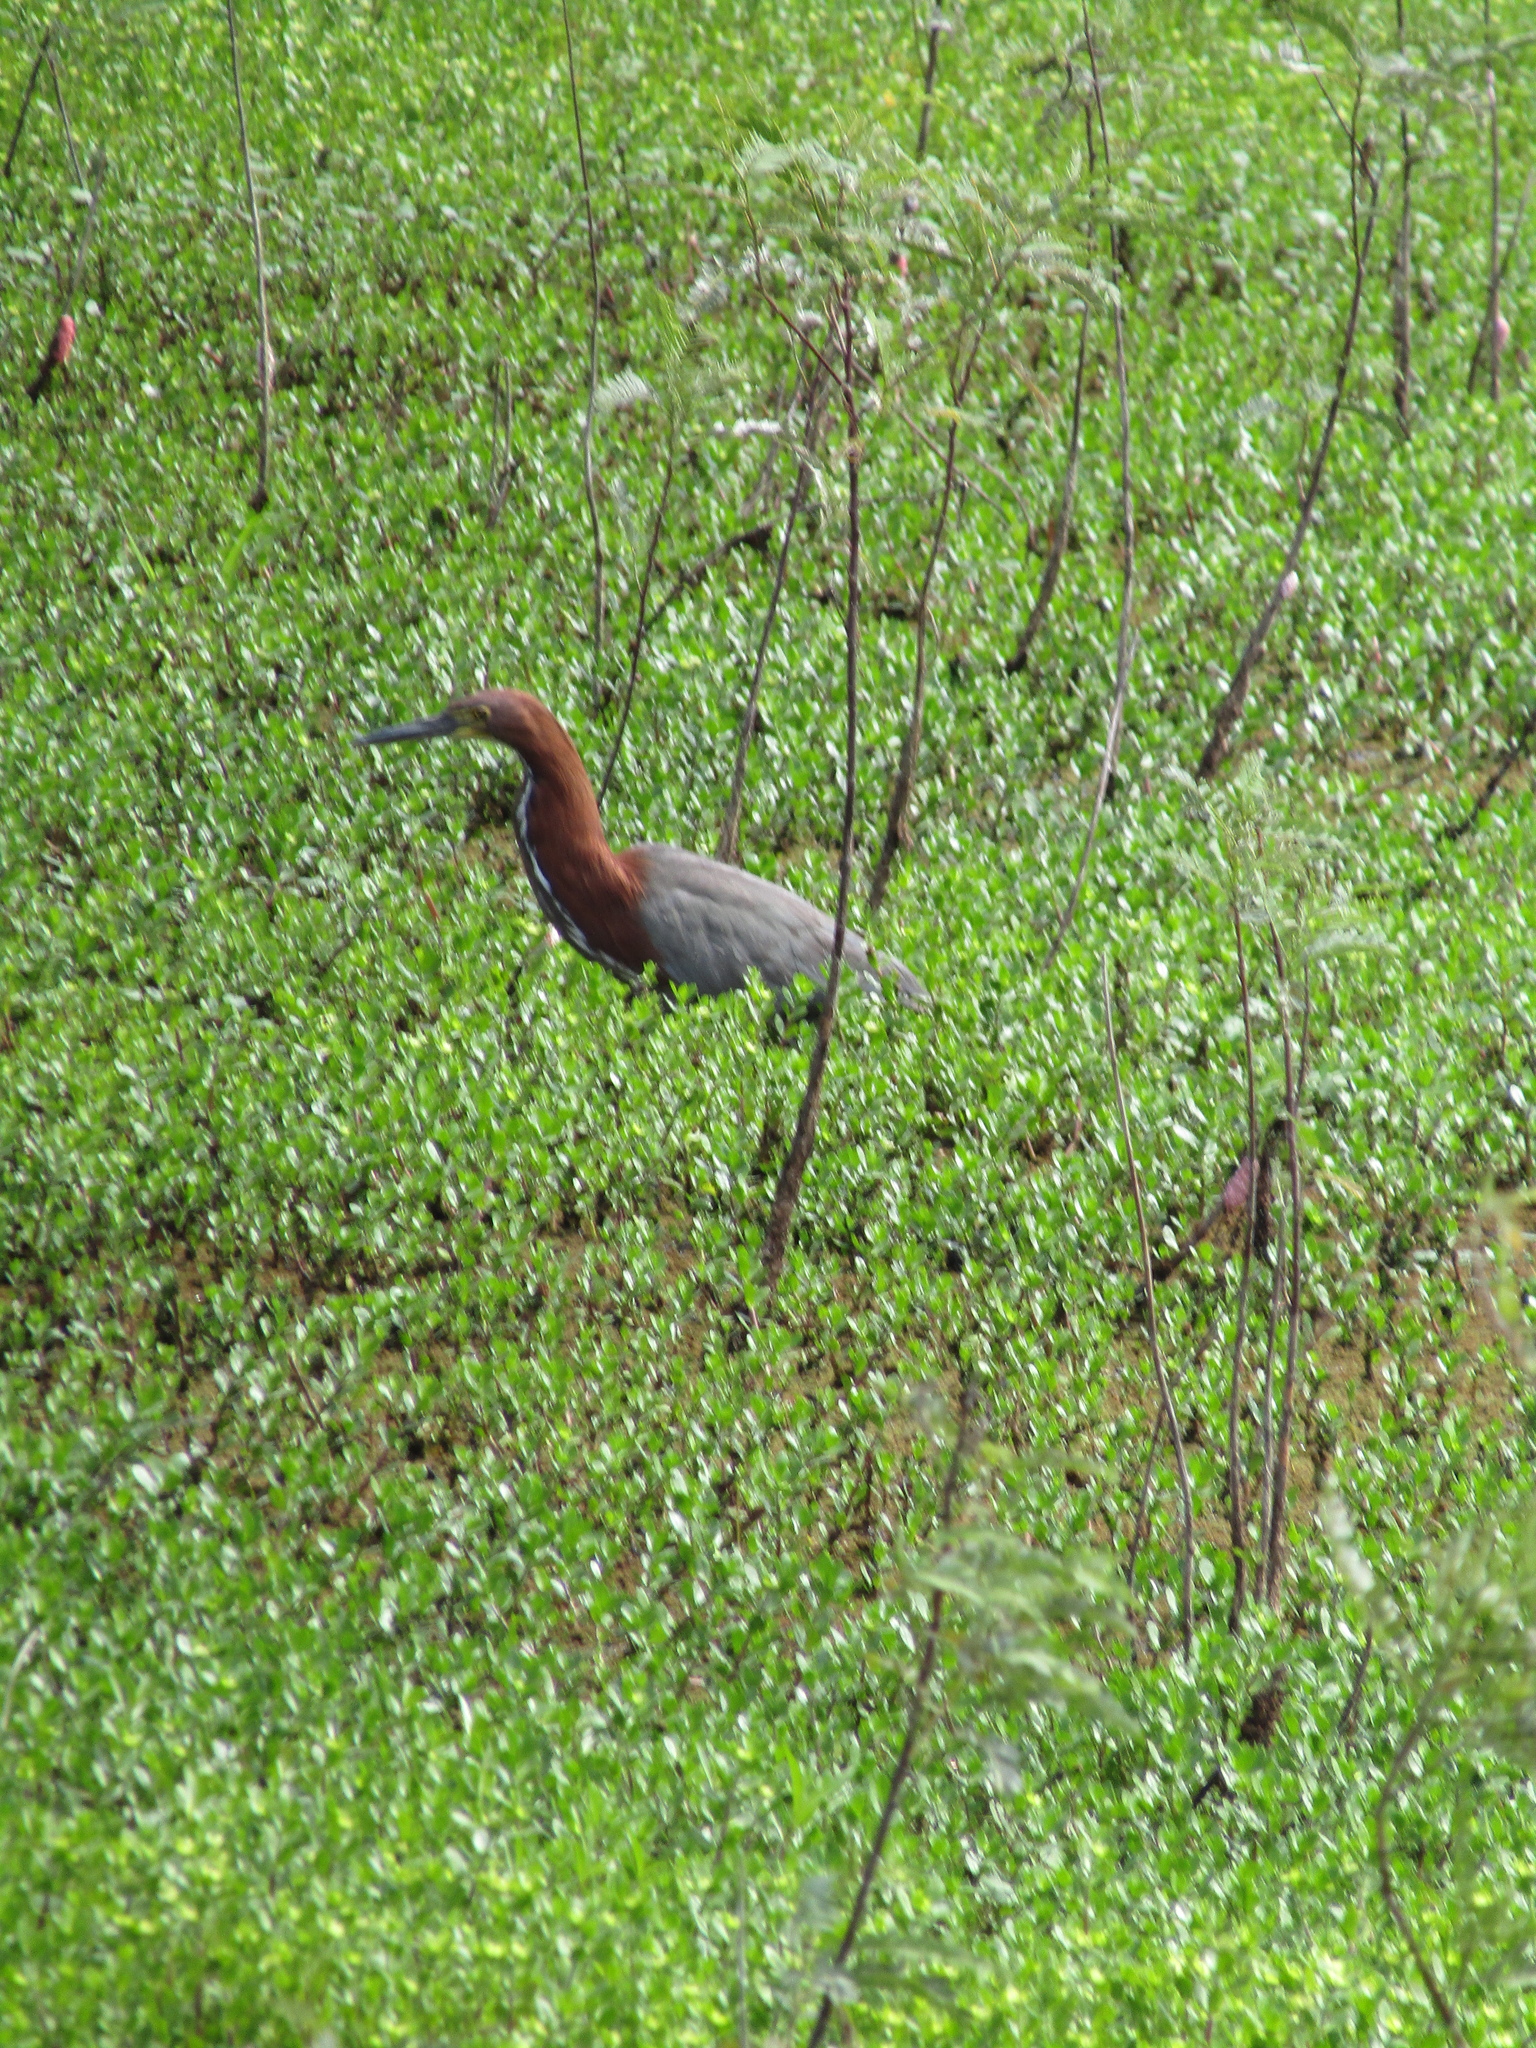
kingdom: Animalia
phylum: Chordata
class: Aves
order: Pelecaniformes
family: Ardeidae
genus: Tigrisoma
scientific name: Tigrisoma lineatum
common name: Rufescent tiger-heron
